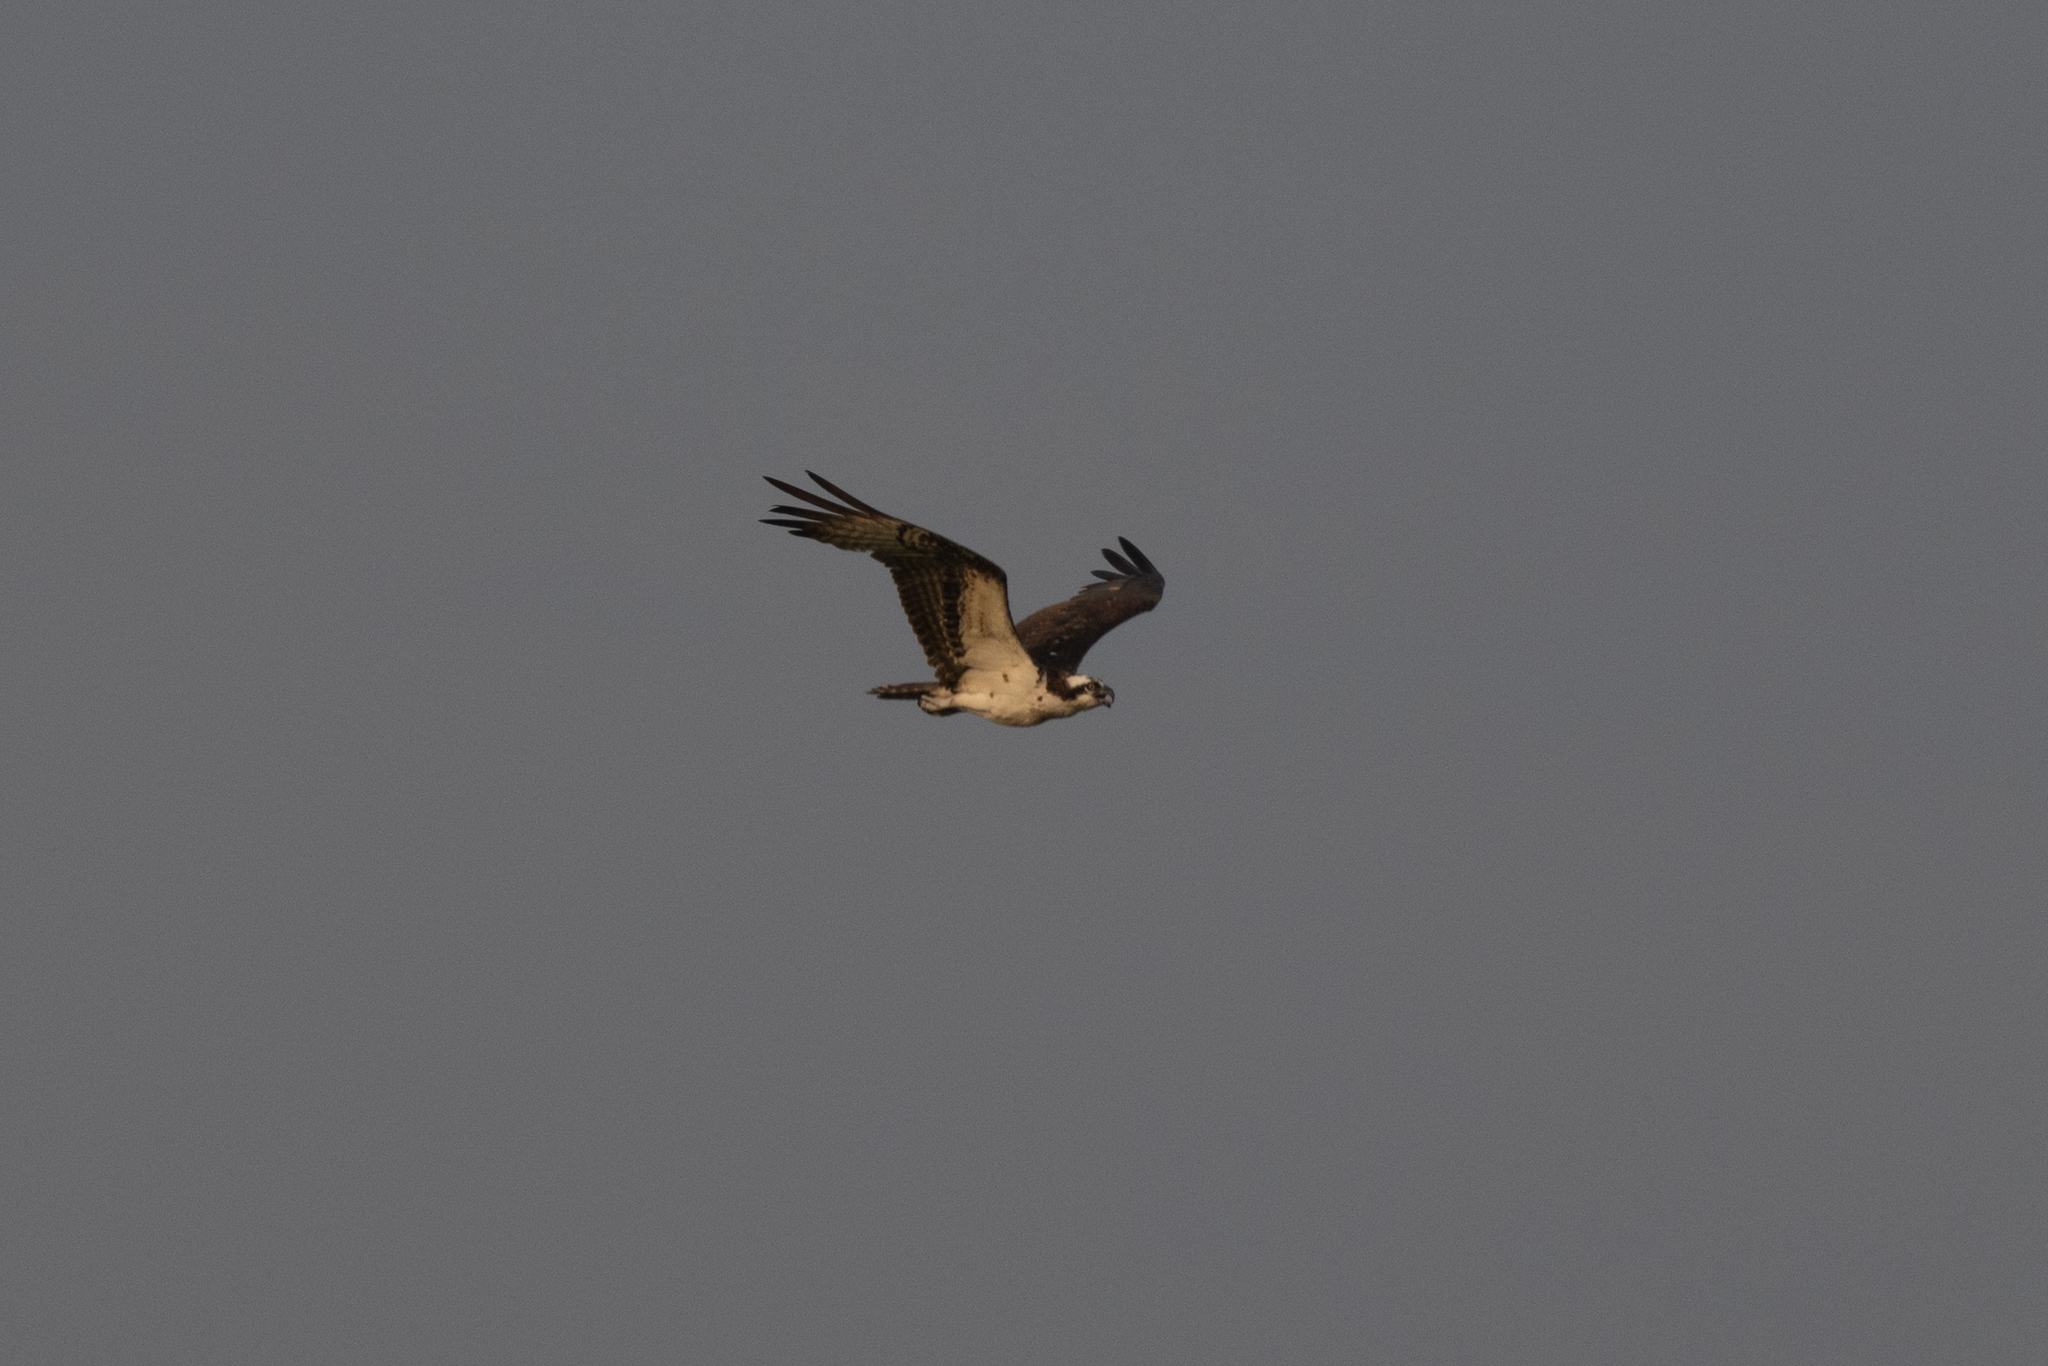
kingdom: Animalia
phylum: Chordata
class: Aves
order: Accipitriformes
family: Pandionidae
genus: Pandion
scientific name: Pandion haliaetus
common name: Osprey
